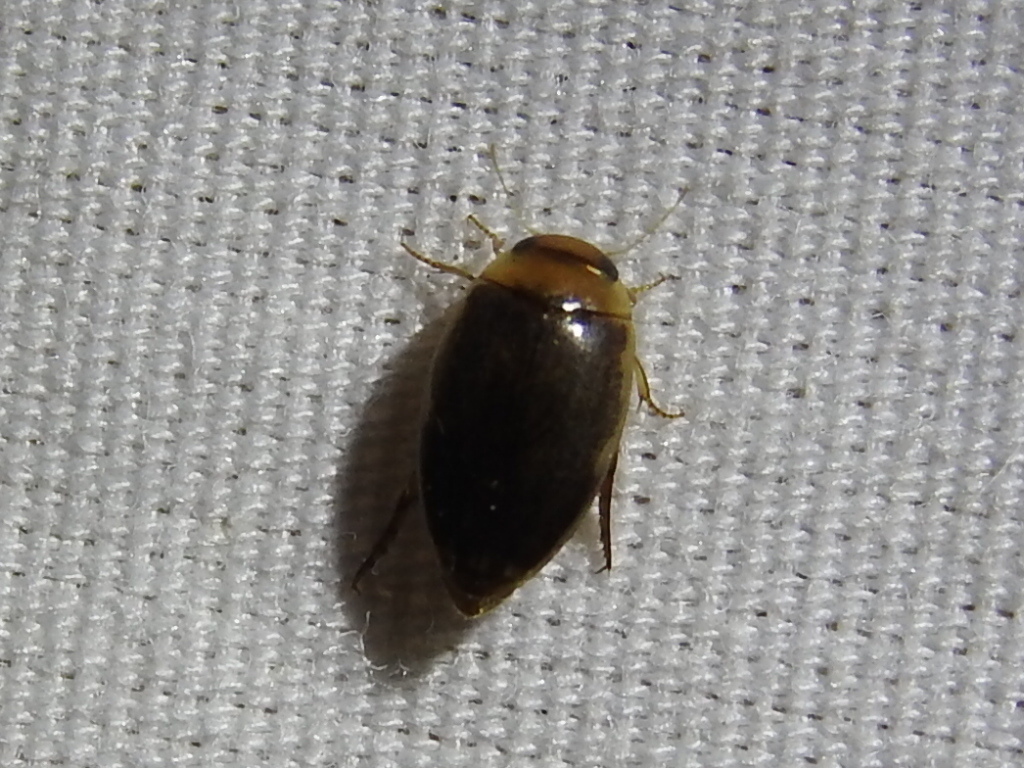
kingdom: Animalia
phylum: Arthropoda
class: Insecta
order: Coleoptera
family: Dytiscidae
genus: Laccophilus
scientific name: Laccophilus proximus
